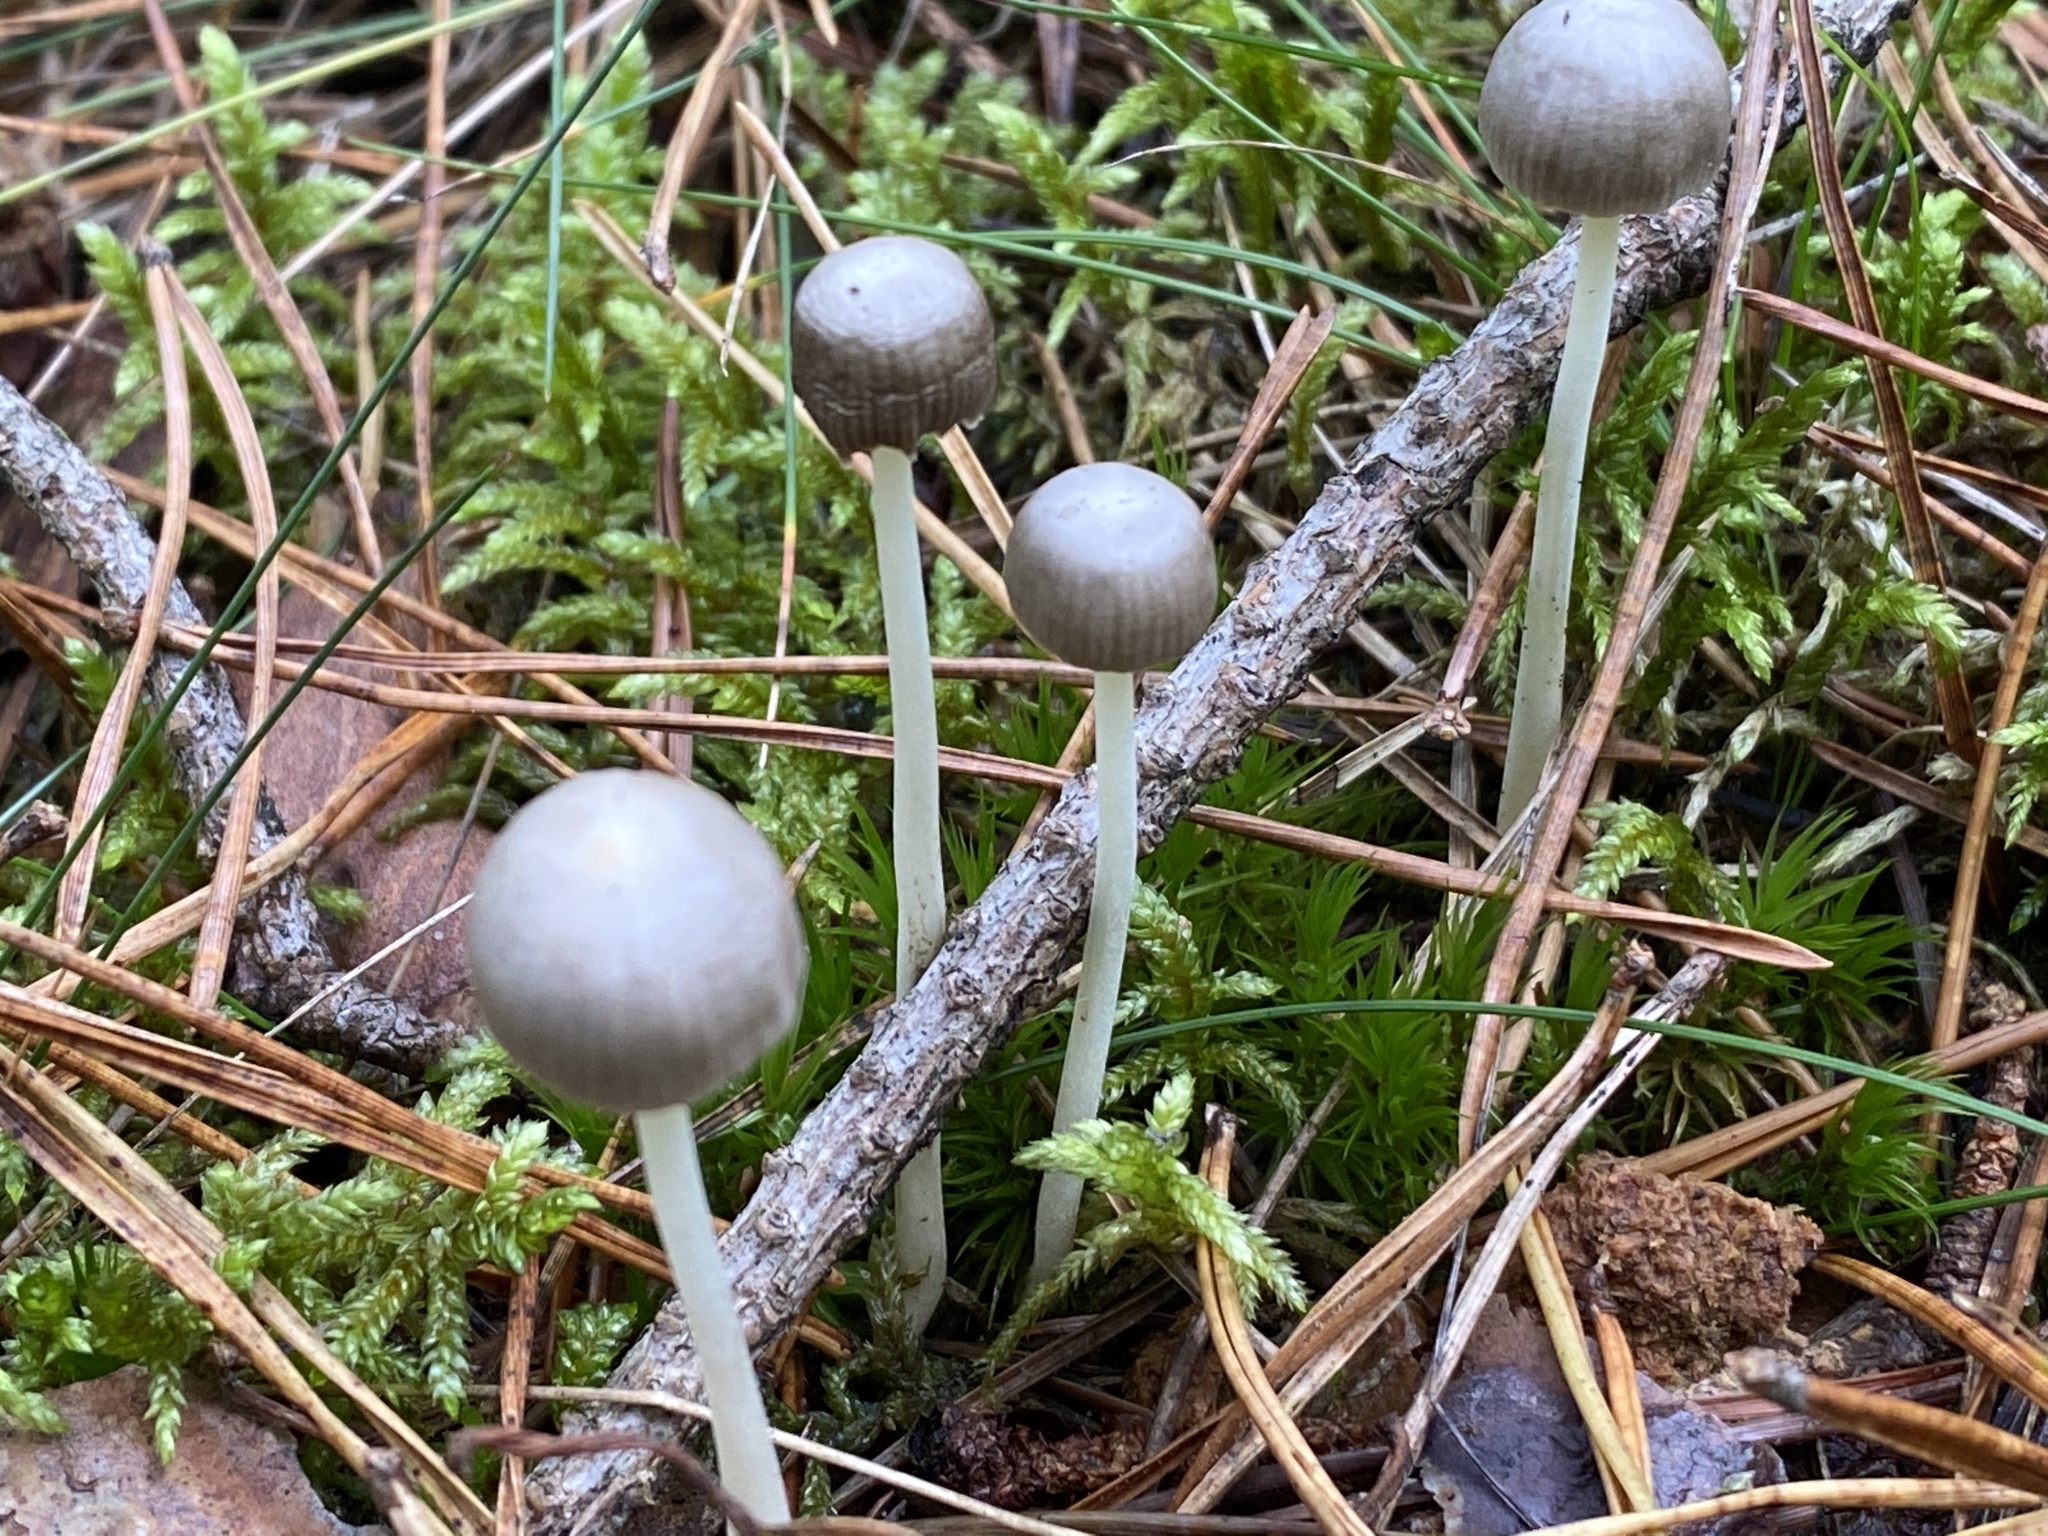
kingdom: Fungi
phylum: Basidiomycota
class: Agaricomycetes
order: Agaricales
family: Mycenaceae
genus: Mycena
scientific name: Mycena epipterygia
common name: Yellowleg bonnet
